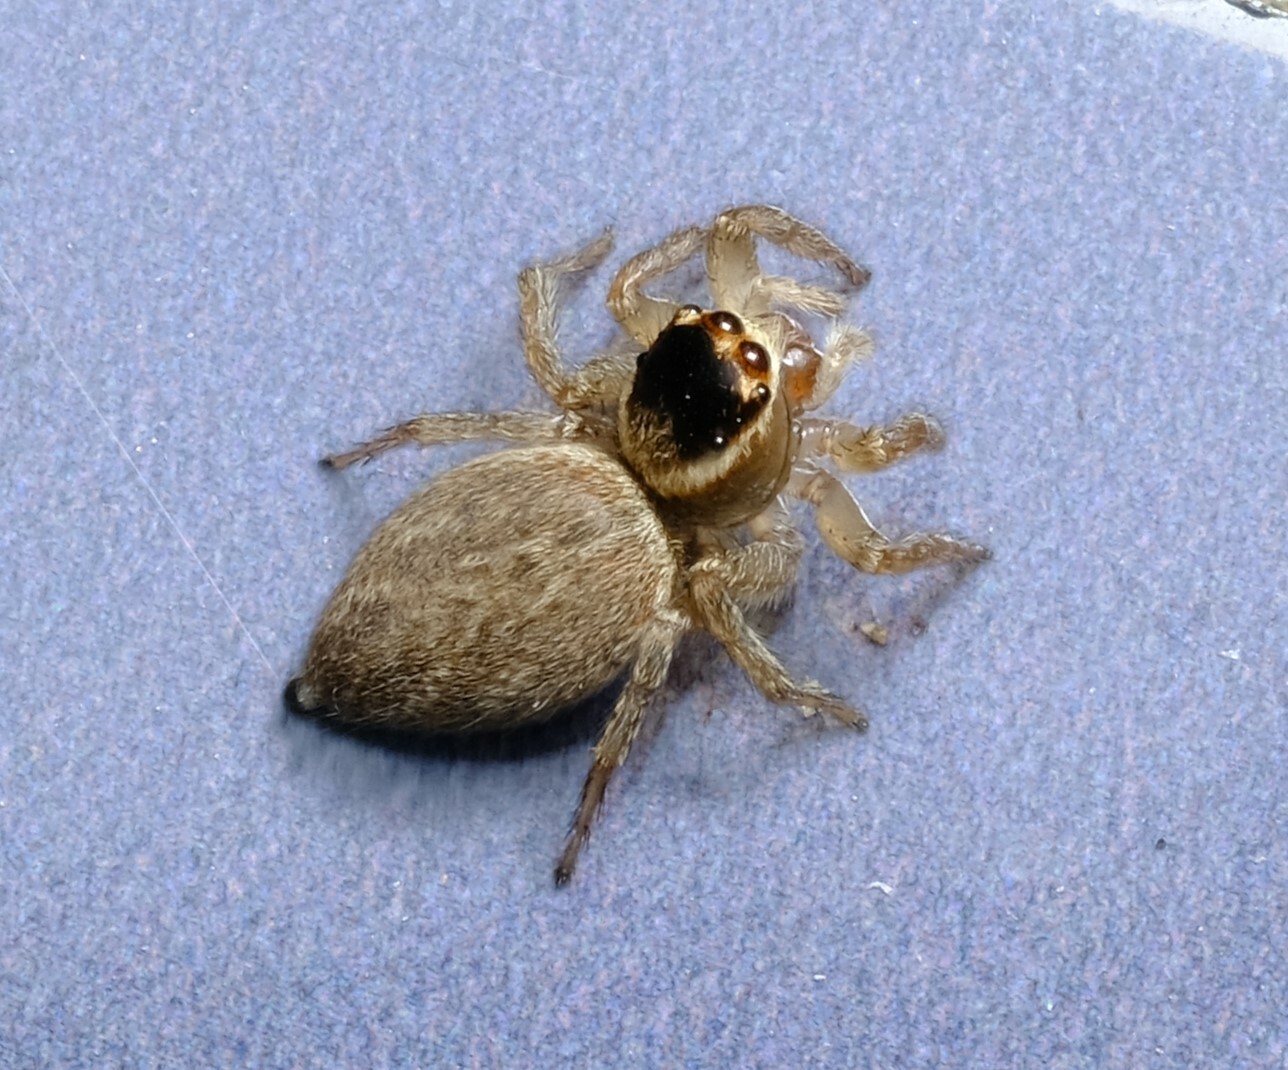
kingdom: Animalia
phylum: Arthropoda
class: Arachnida
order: Araneae
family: Salticidae
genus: Maratus
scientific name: Maratus griseus
